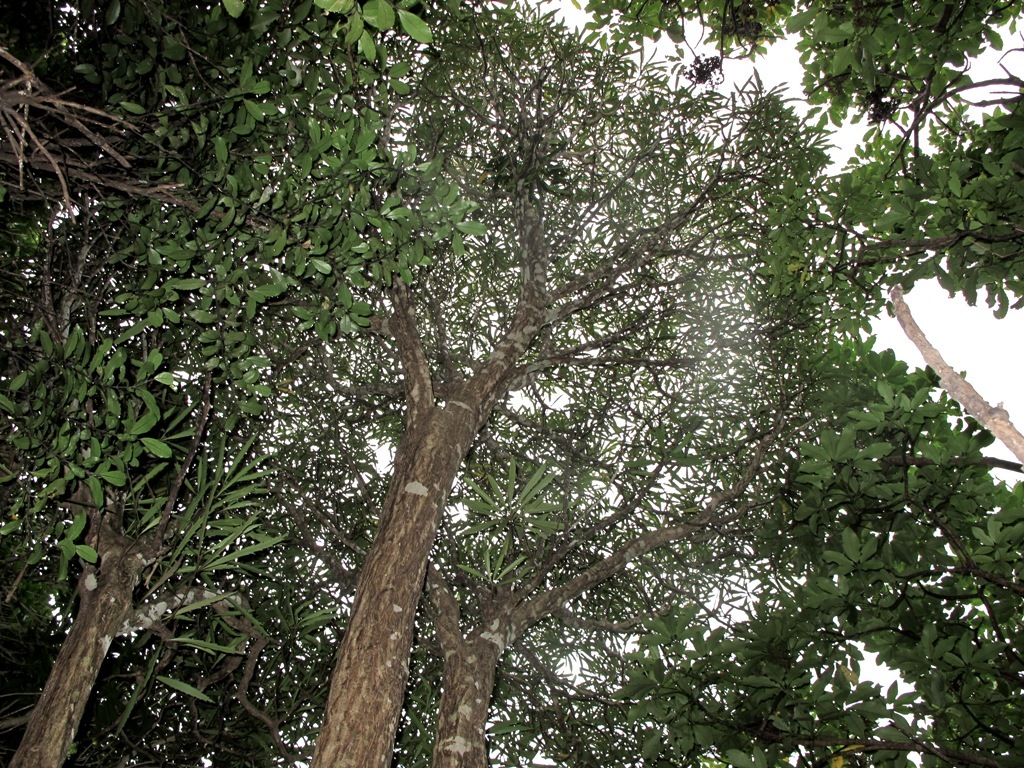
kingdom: Plantae
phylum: Tracheophyta
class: Magnoliopsida
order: Apiales
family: Araliaceae
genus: Pseudopanax
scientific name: Pseudopanax crassifolius
